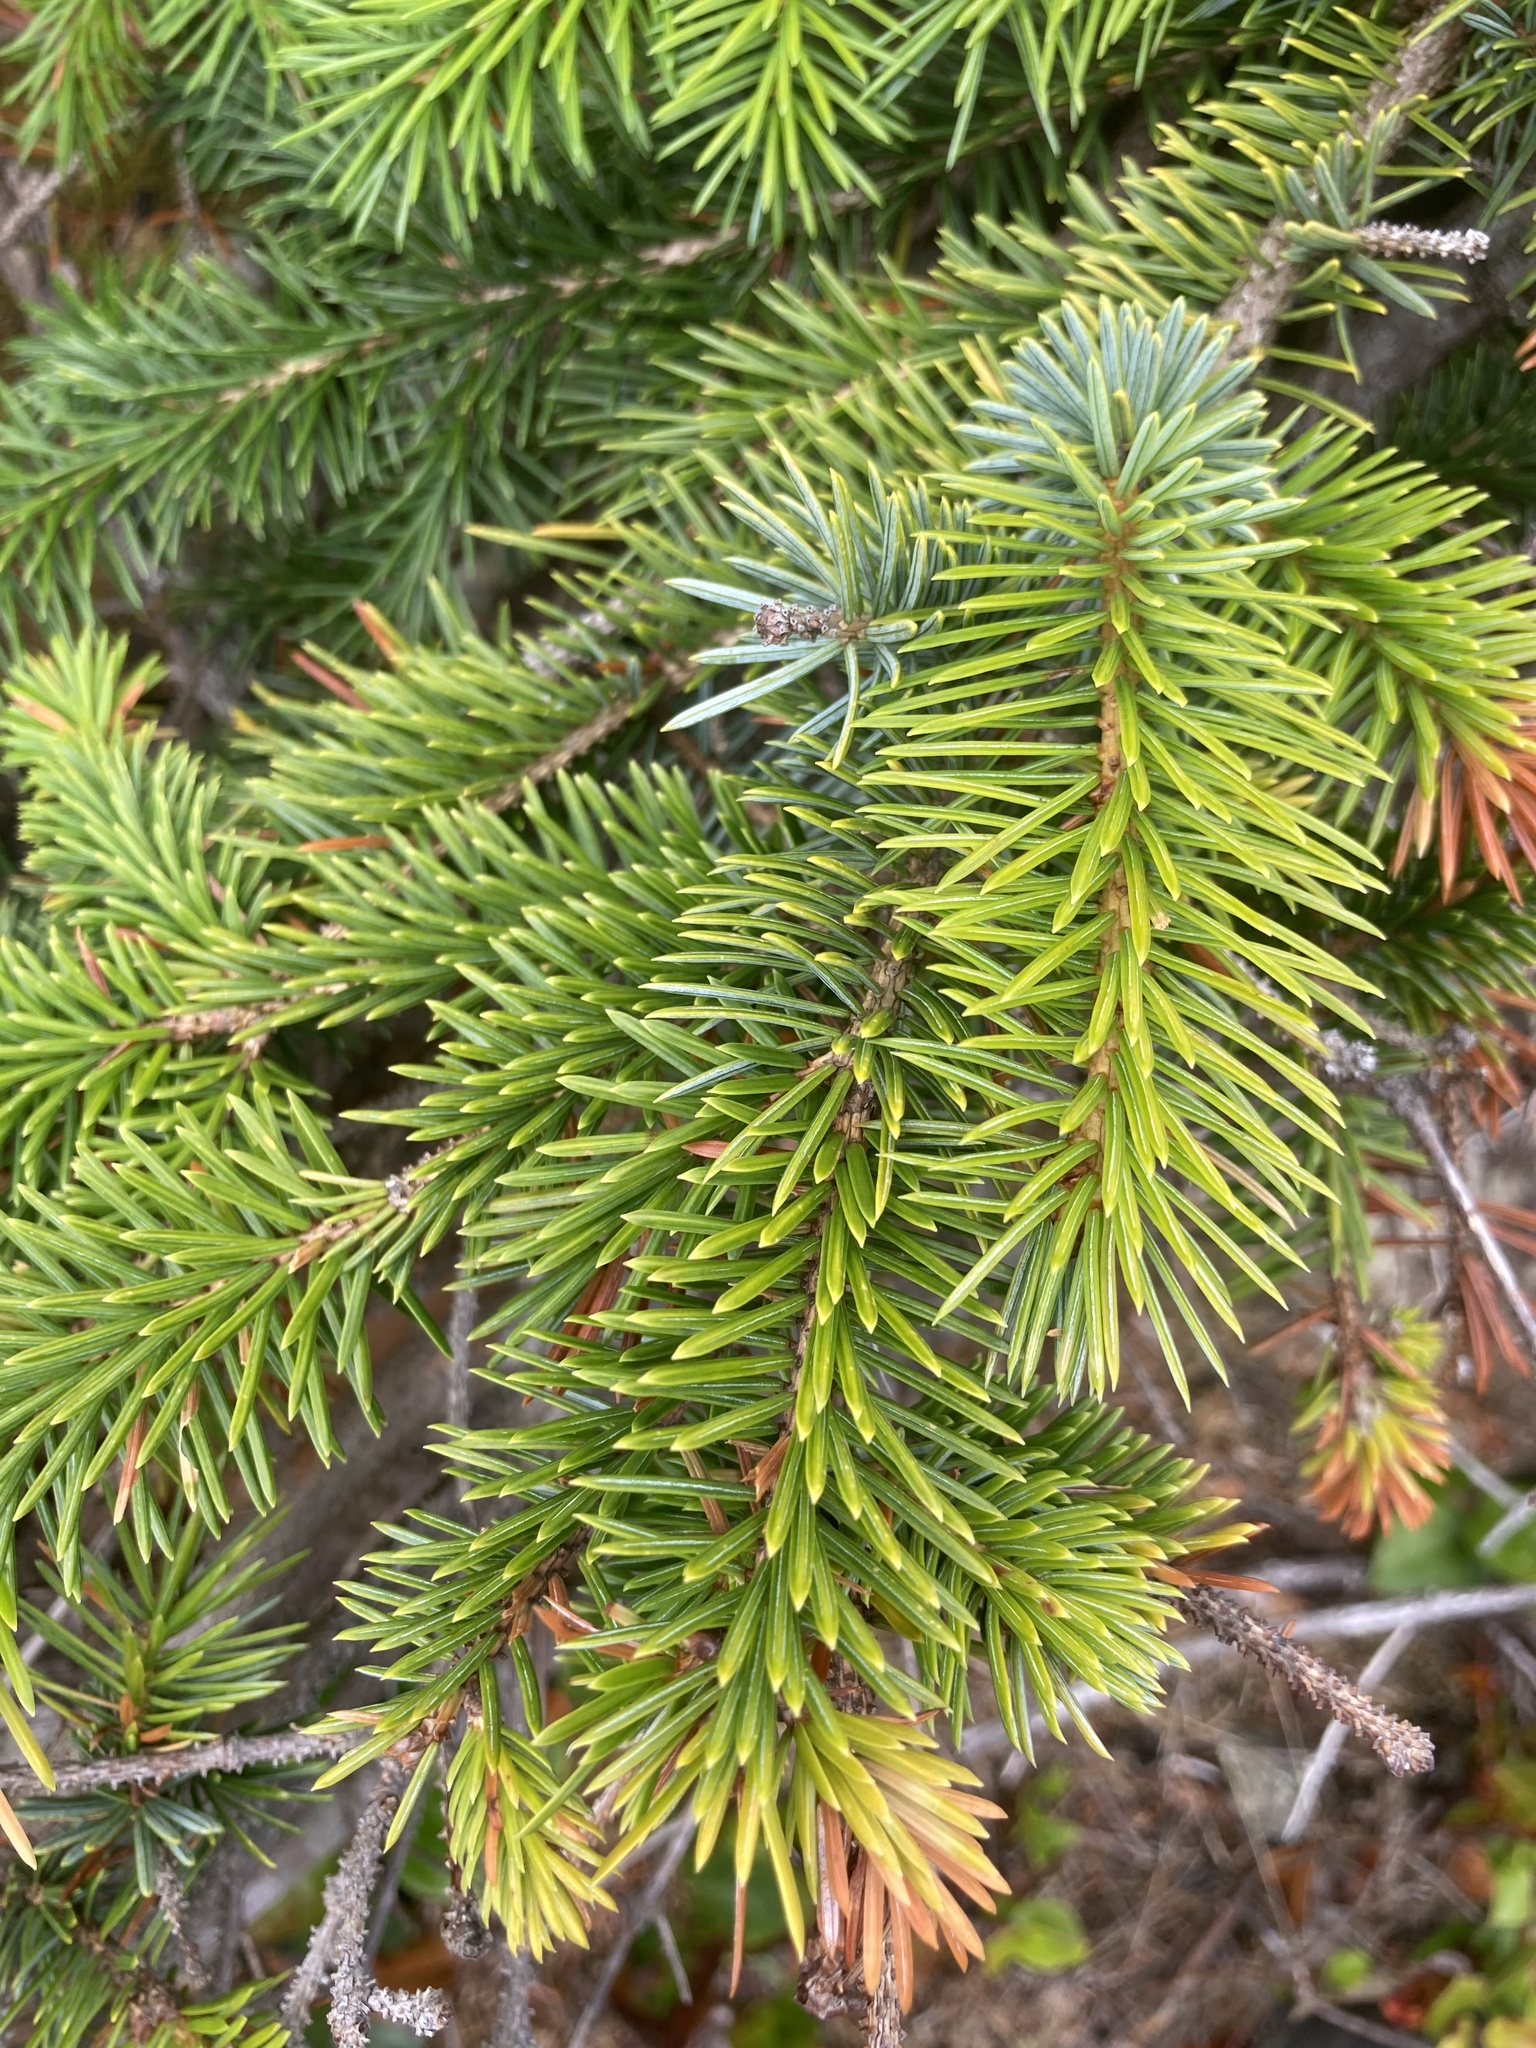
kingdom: Plantae
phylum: Tracheophyta
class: Pinopsida
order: Pinales
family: Pinaceae
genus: Picea
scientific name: Picea sitchensis
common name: Sitka spruce
